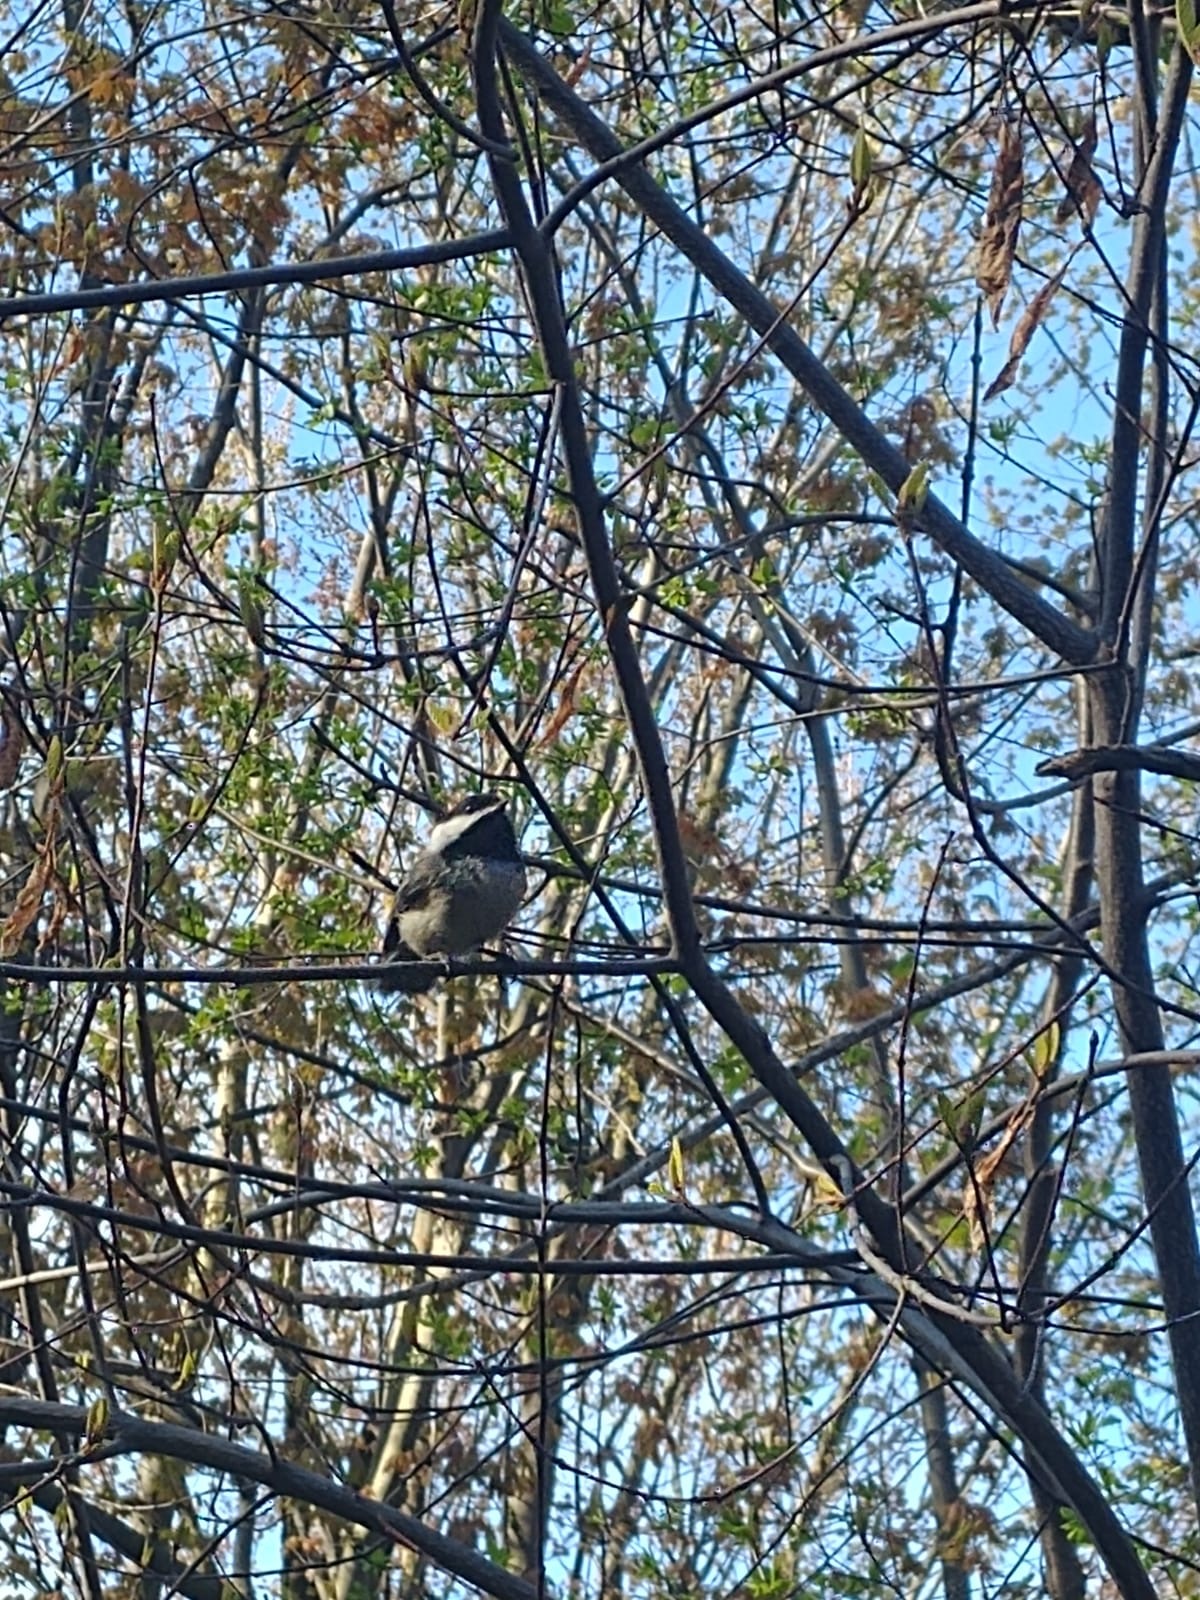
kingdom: Animalia
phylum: Chordata
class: Aves
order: Passeriformes
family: Paridae
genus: Poecile
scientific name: Poecile atricapillus
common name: Black-capped chickadee
